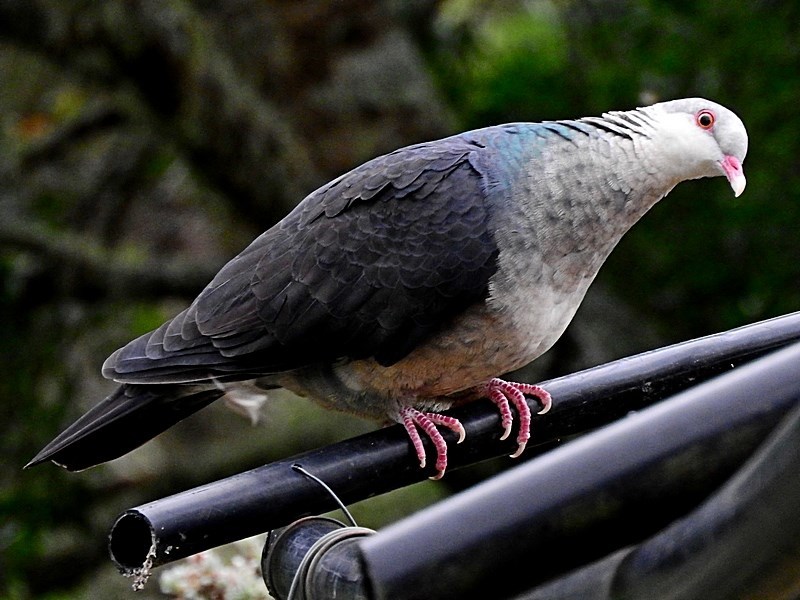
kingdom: Animalia
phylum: Chordata
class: Aves
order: Columbiformes
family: Columbidae
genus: Columba
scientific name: Columba leucomela
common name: White-headed pigeon
